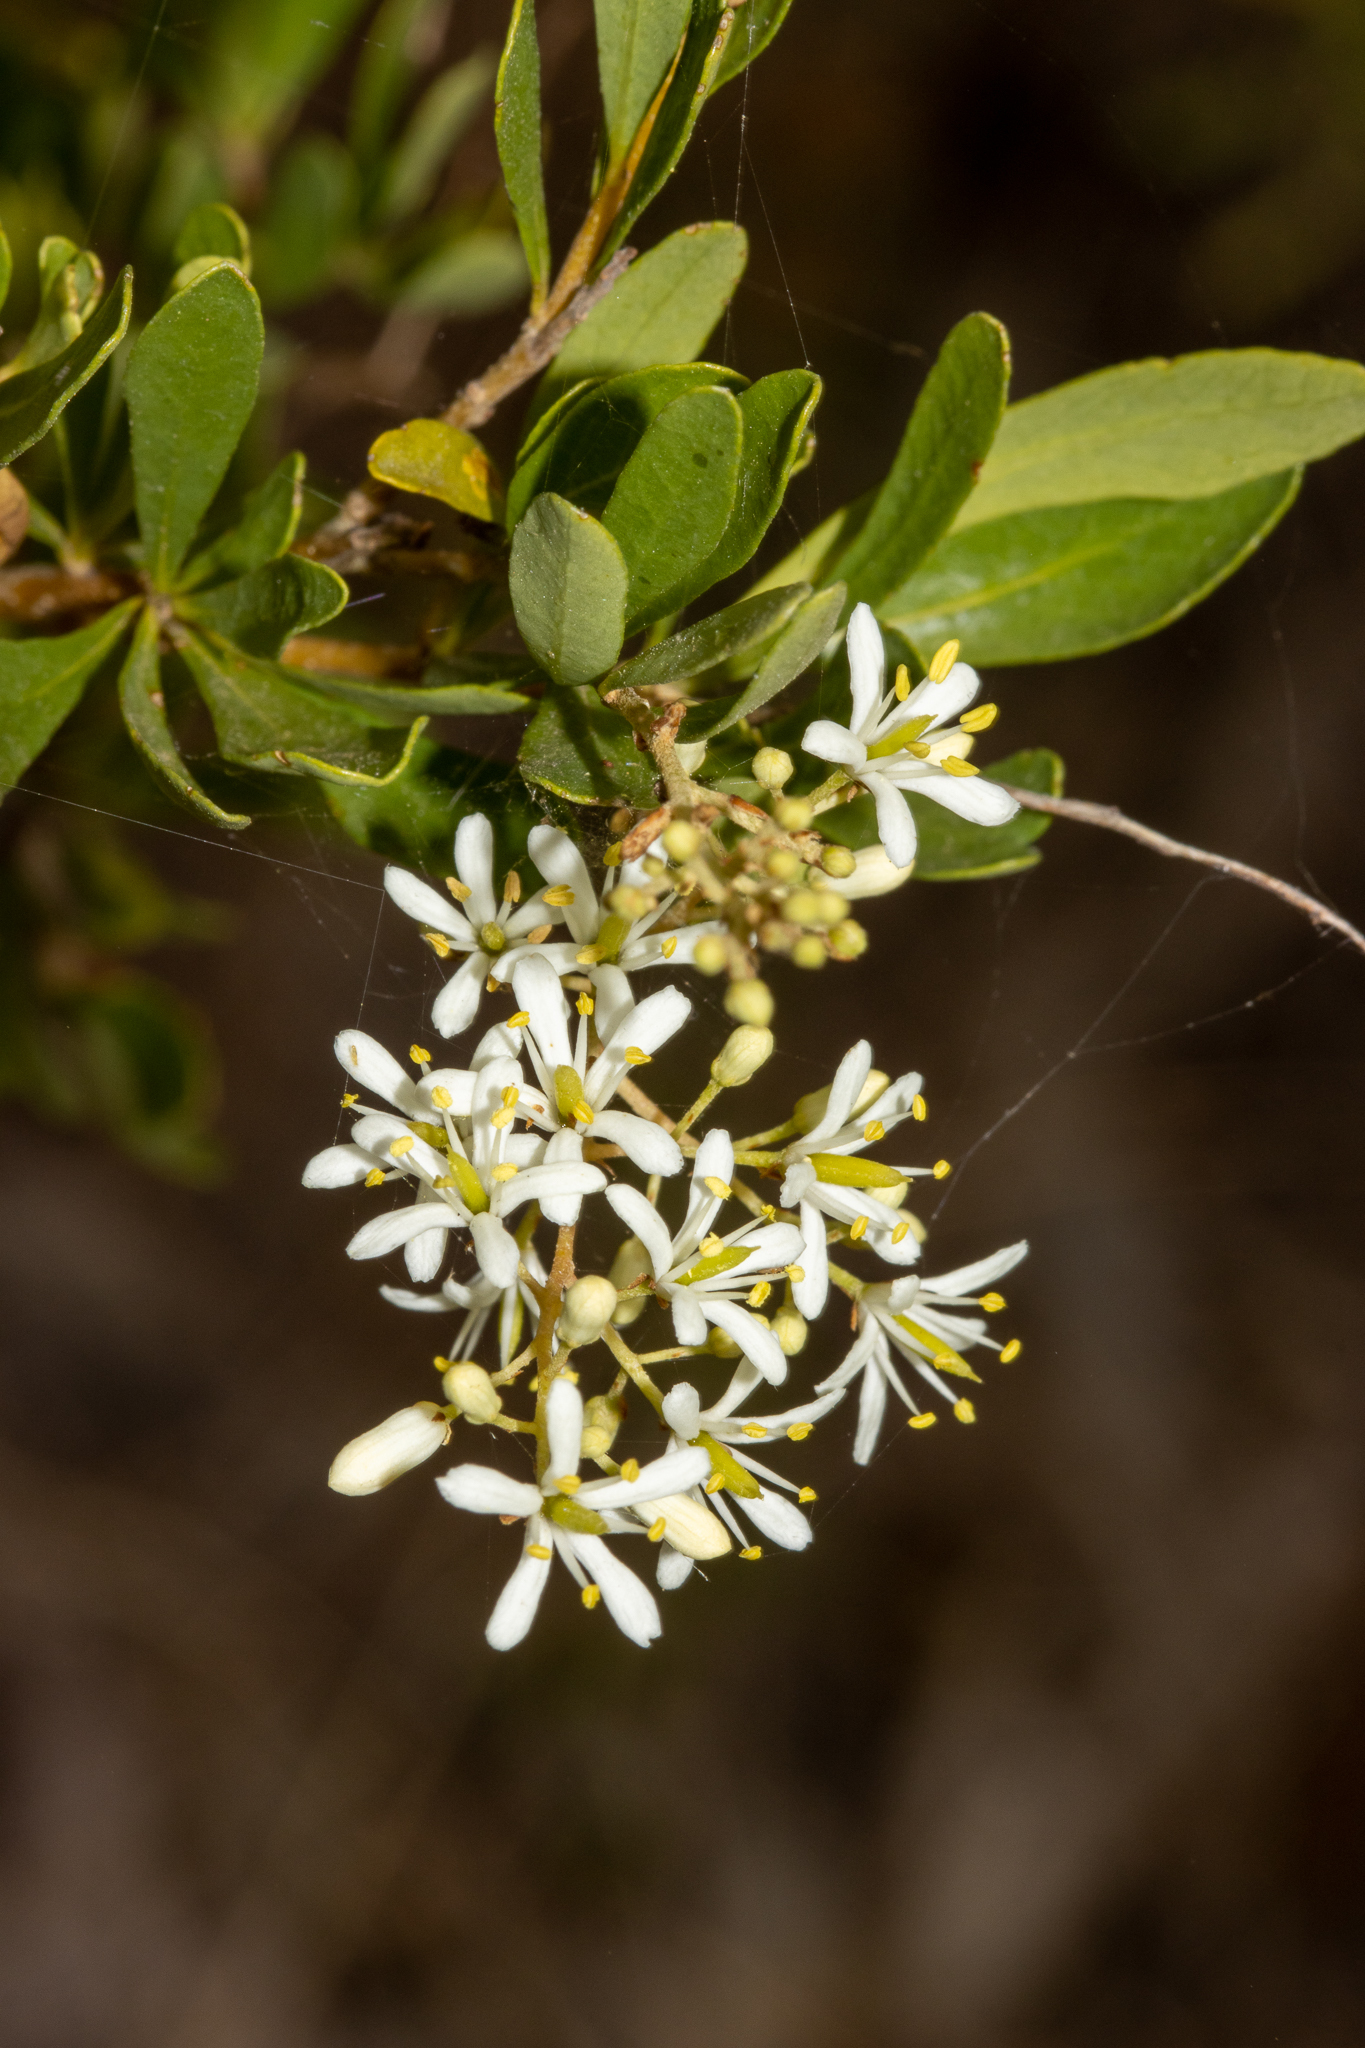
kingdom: Plantae
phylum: Tracheophyta
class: Magnoliopsida
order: Apiales
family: Pittosporaceae
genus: Bursaria
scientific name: Bursaria spinosa
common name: Australian blackthorn
